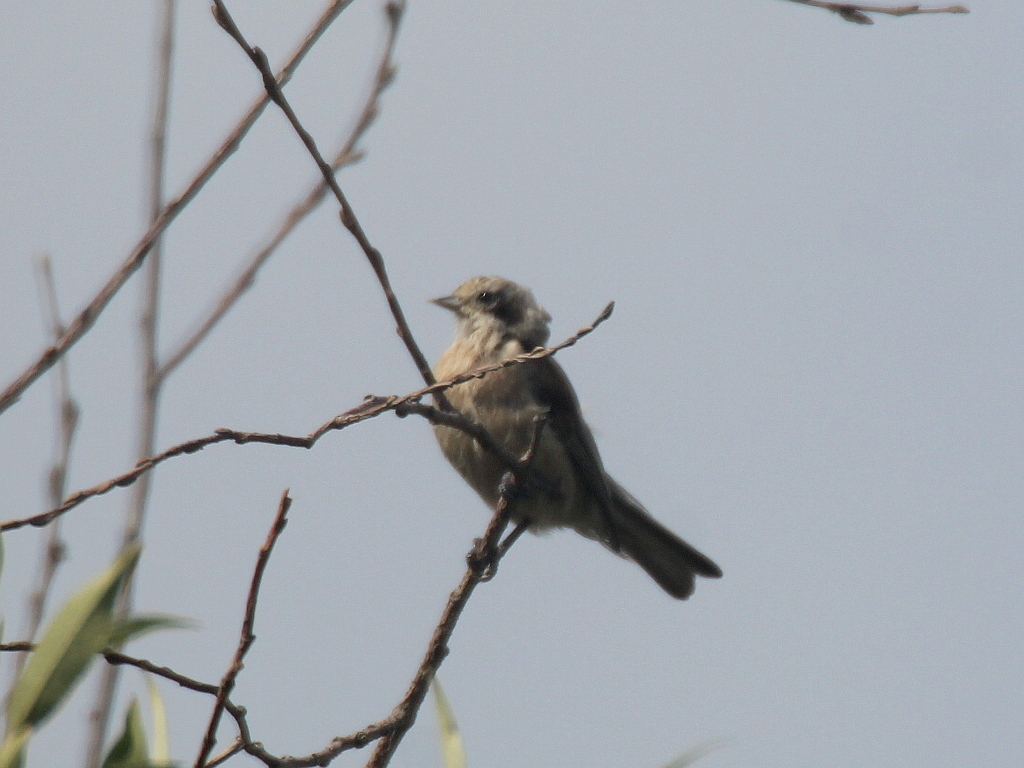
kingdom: Animalia
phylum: Chordata
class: Aves
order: Passeriformes
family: Remizidae
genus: Remiz
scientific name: Remiz pendulinus
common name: Eurasian penduline tit
